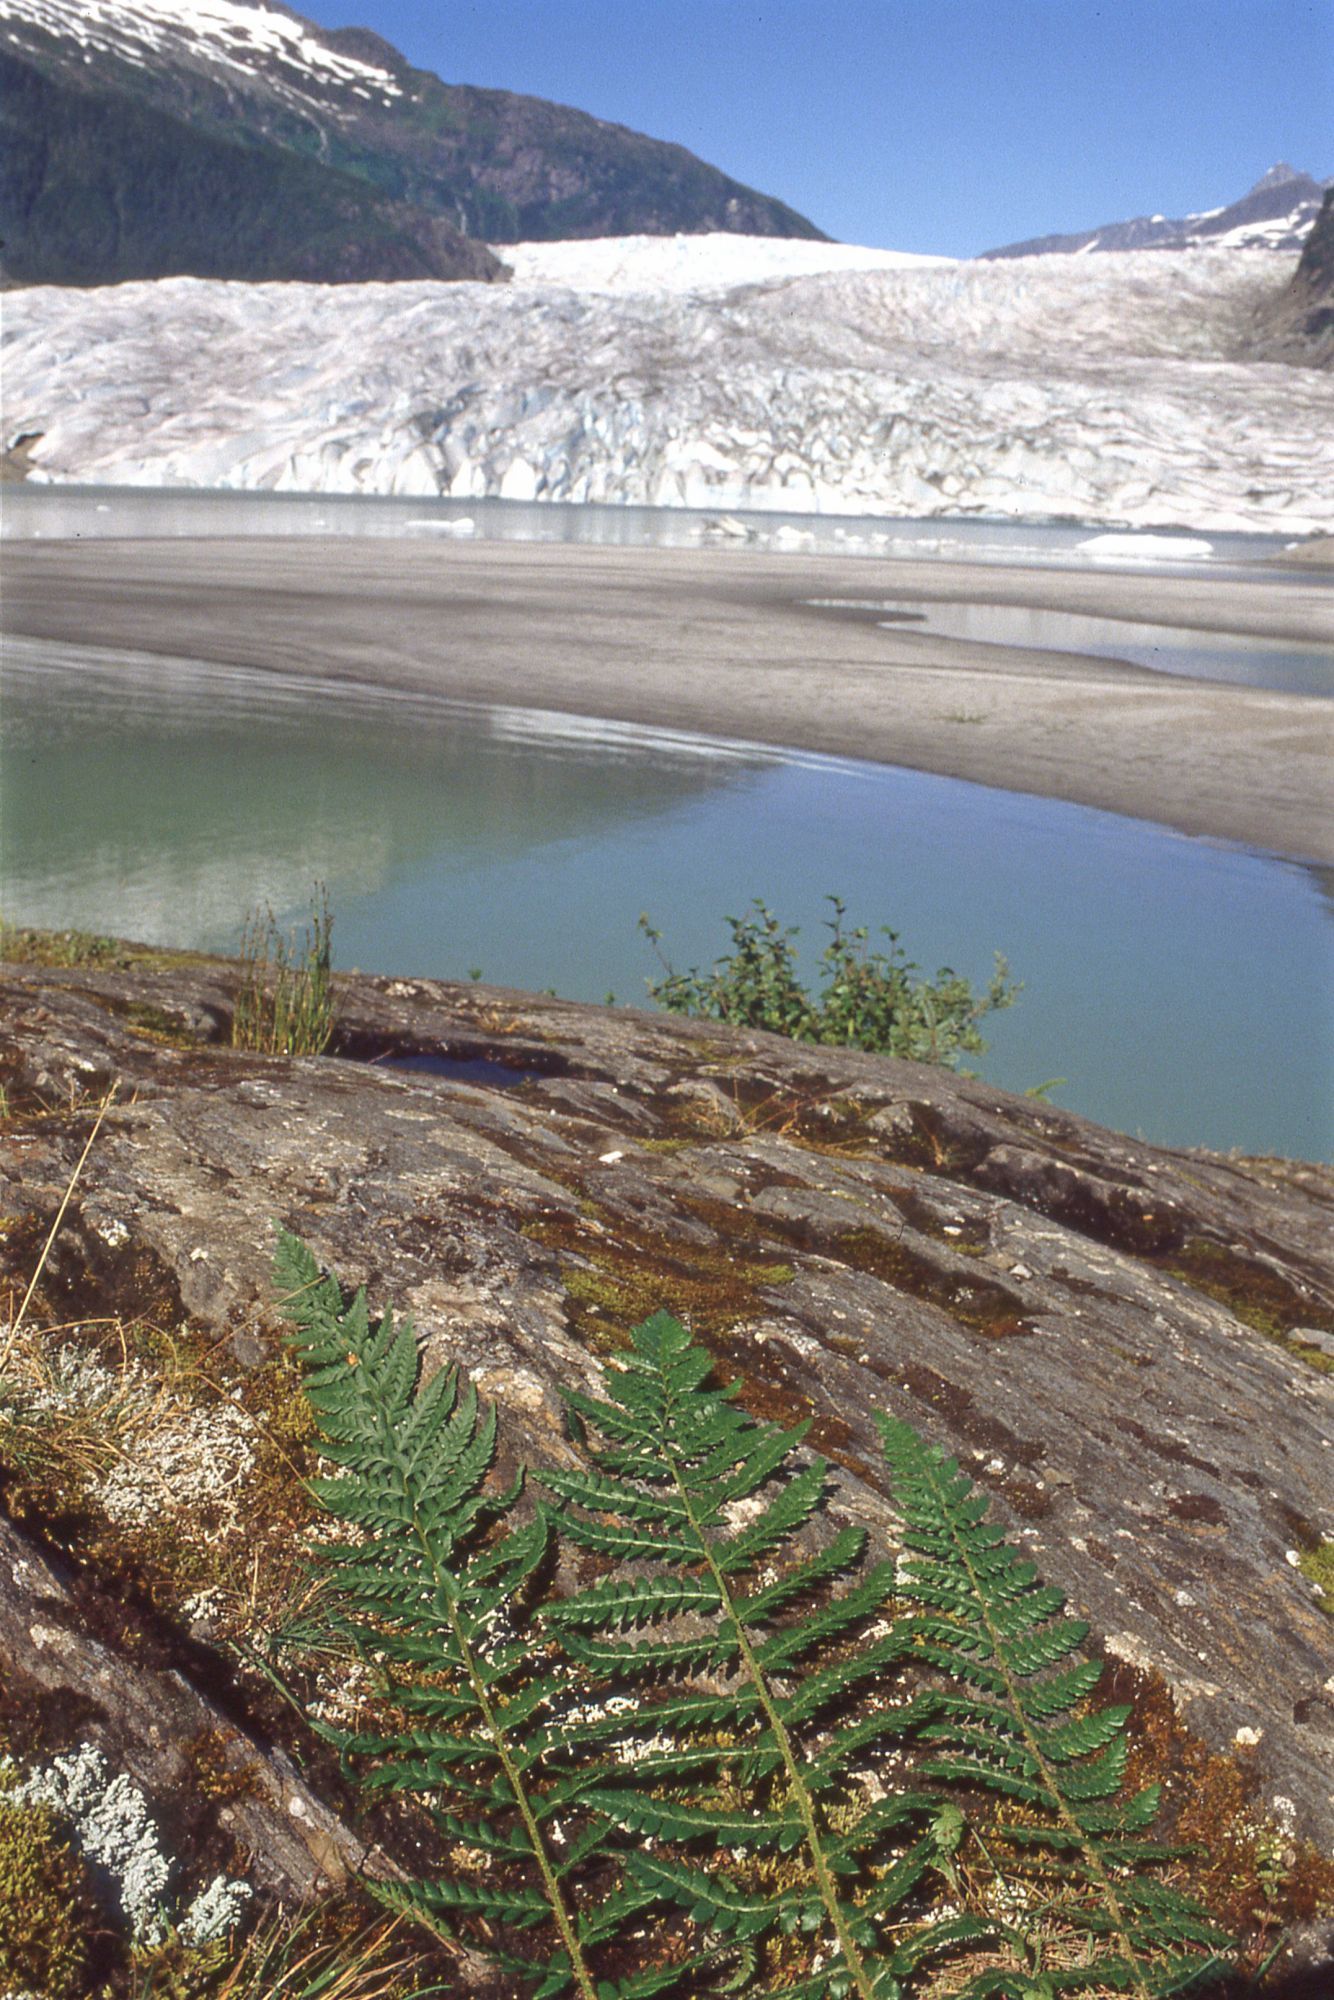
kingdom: Plantae
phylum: Tracheophyta
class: Polypodiopsida
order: Polypodiales
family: Dryopteridaceae
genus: Polystichum
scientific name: Polystichum andersonii
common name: Anderson's holly fern
